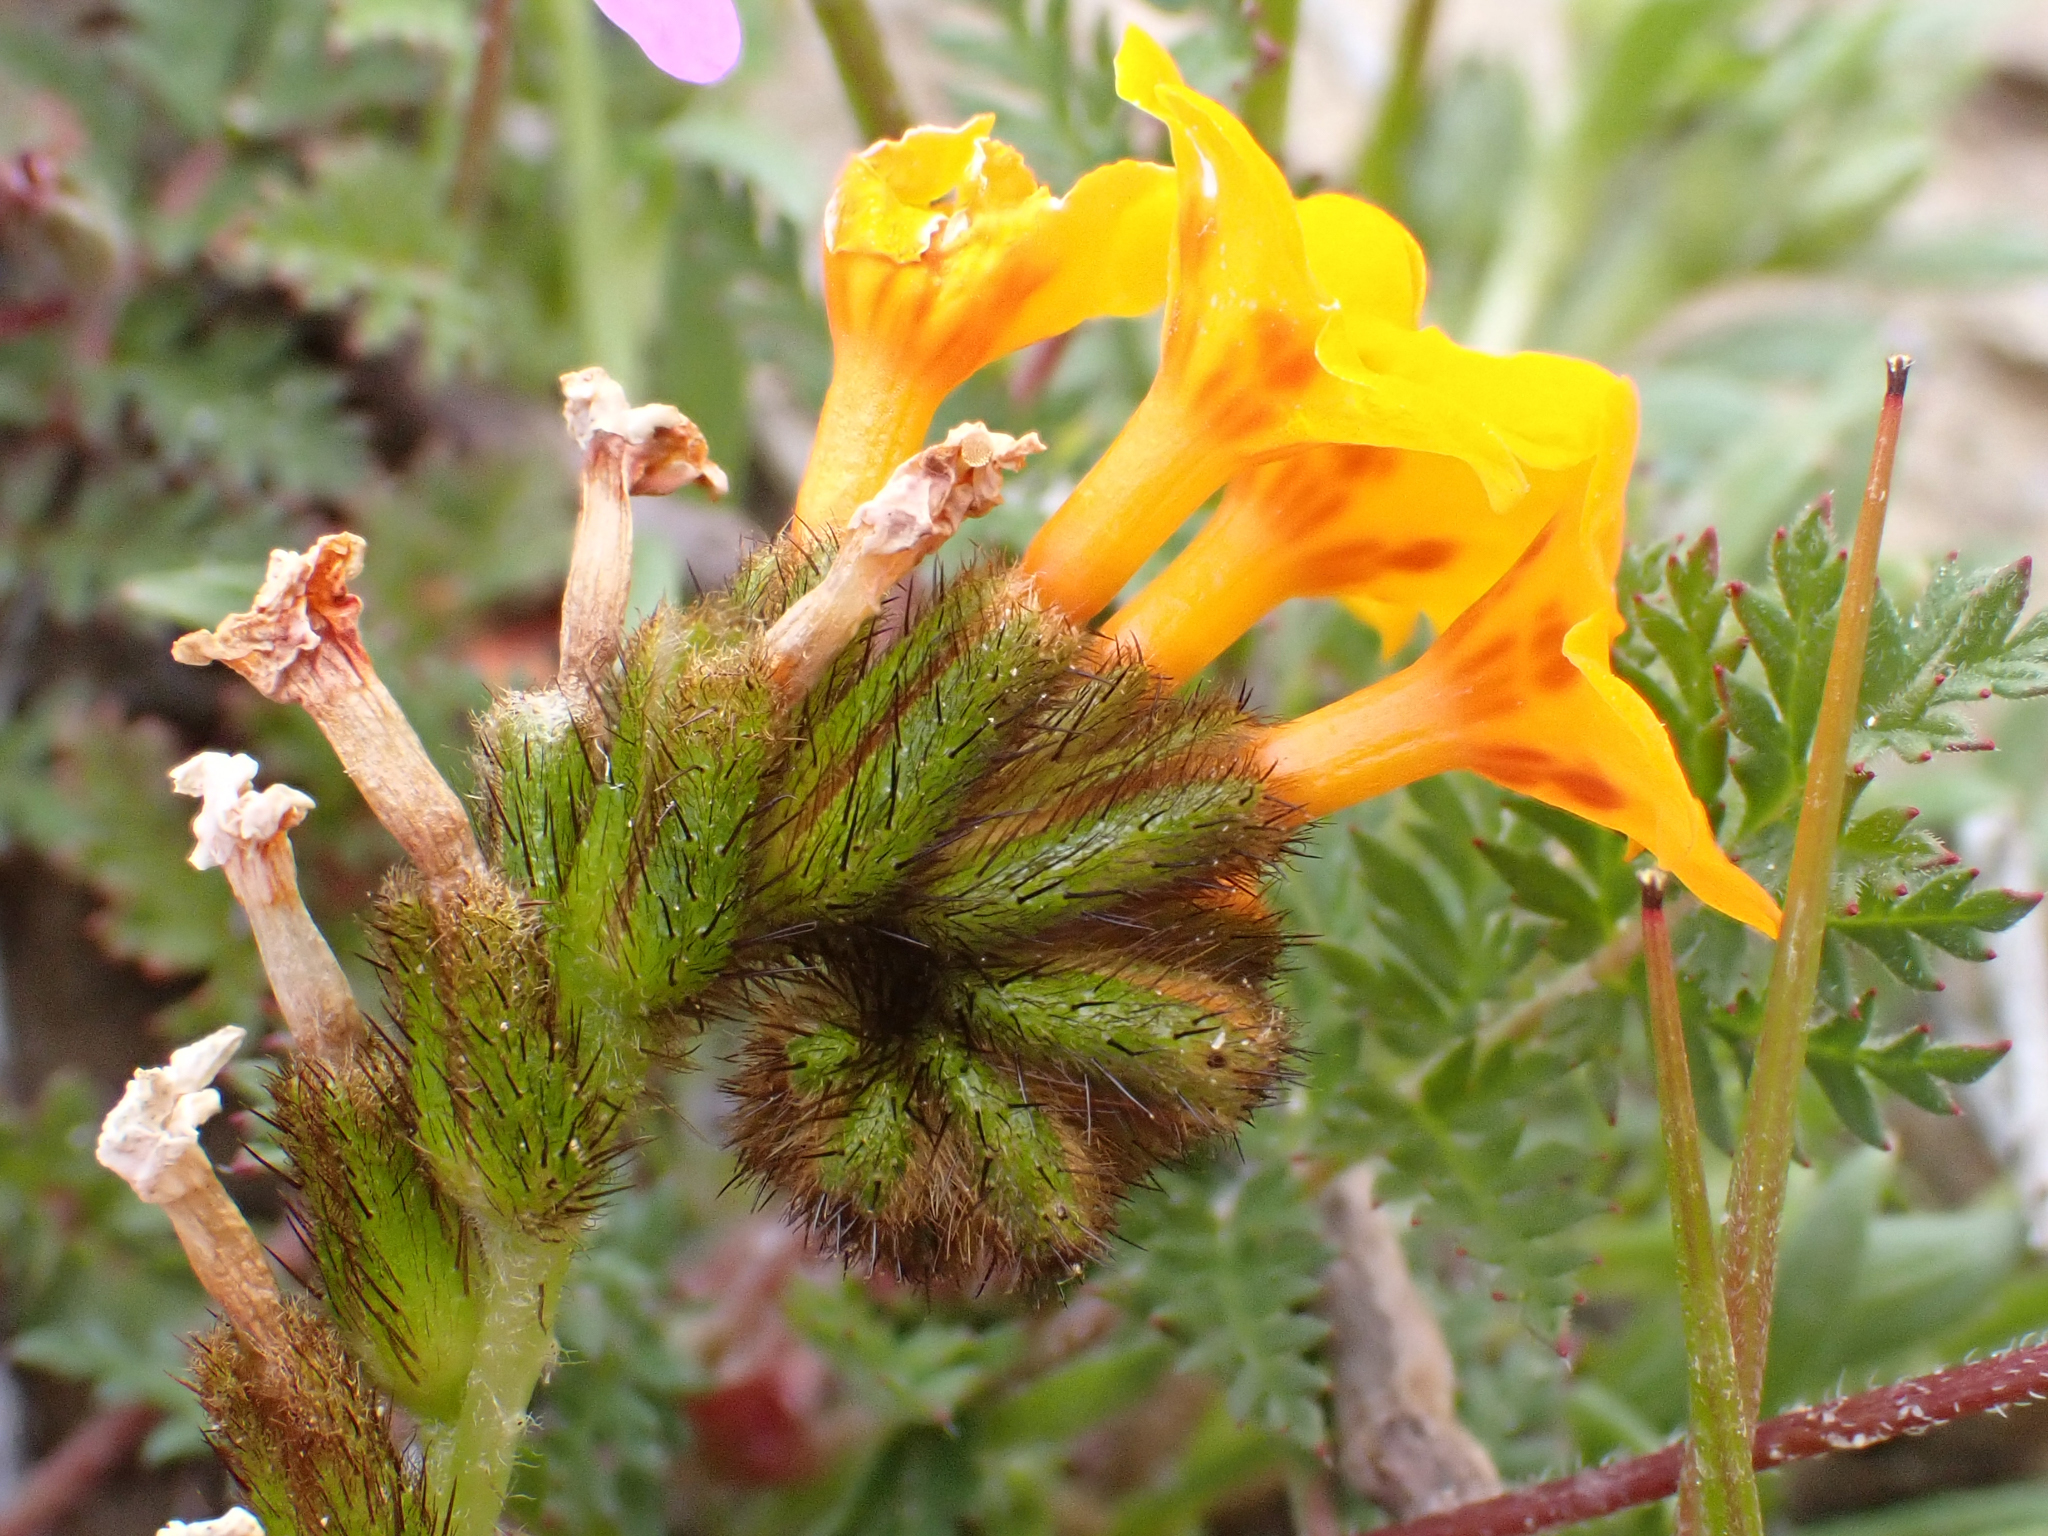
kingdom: Plantae
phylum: Tracheophyta
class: Magnoliopsida
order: Boraginales
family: Boraginaceae
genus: Amsinckia
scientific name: Amsinckia vernicosa
